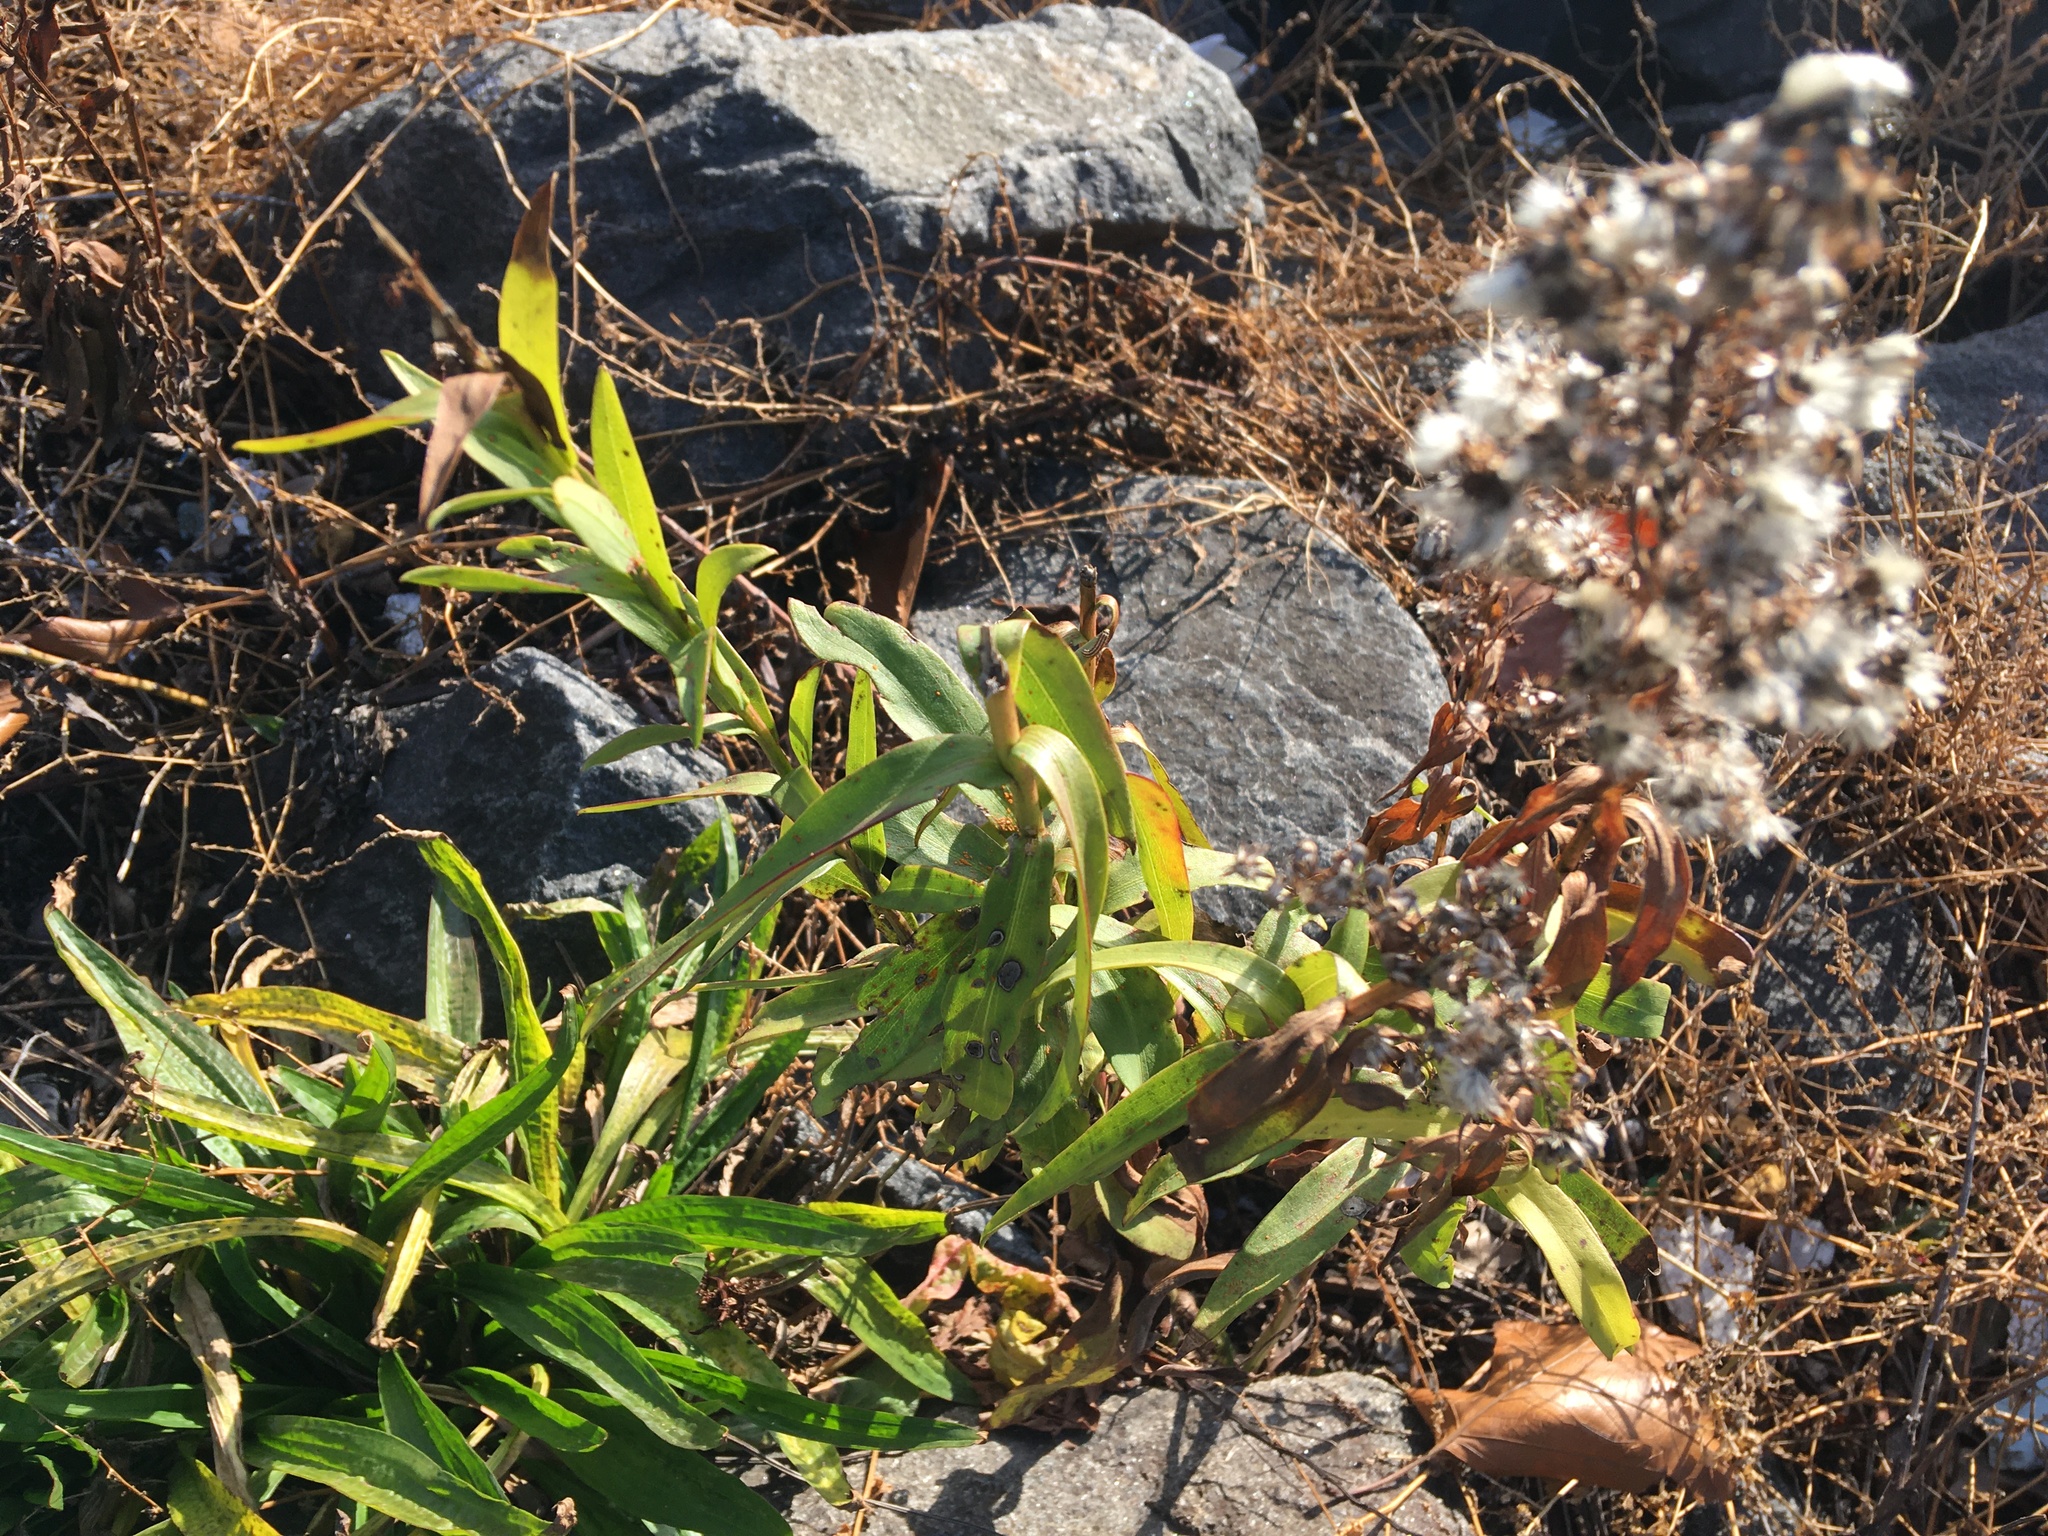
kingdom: Plantae
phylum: Tracheophyta
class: Magnoliopsida
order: Asterales
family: Asteraceae
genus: Solidago
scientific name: Solidago sempervirens
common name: Salt-marsh goldenrod
